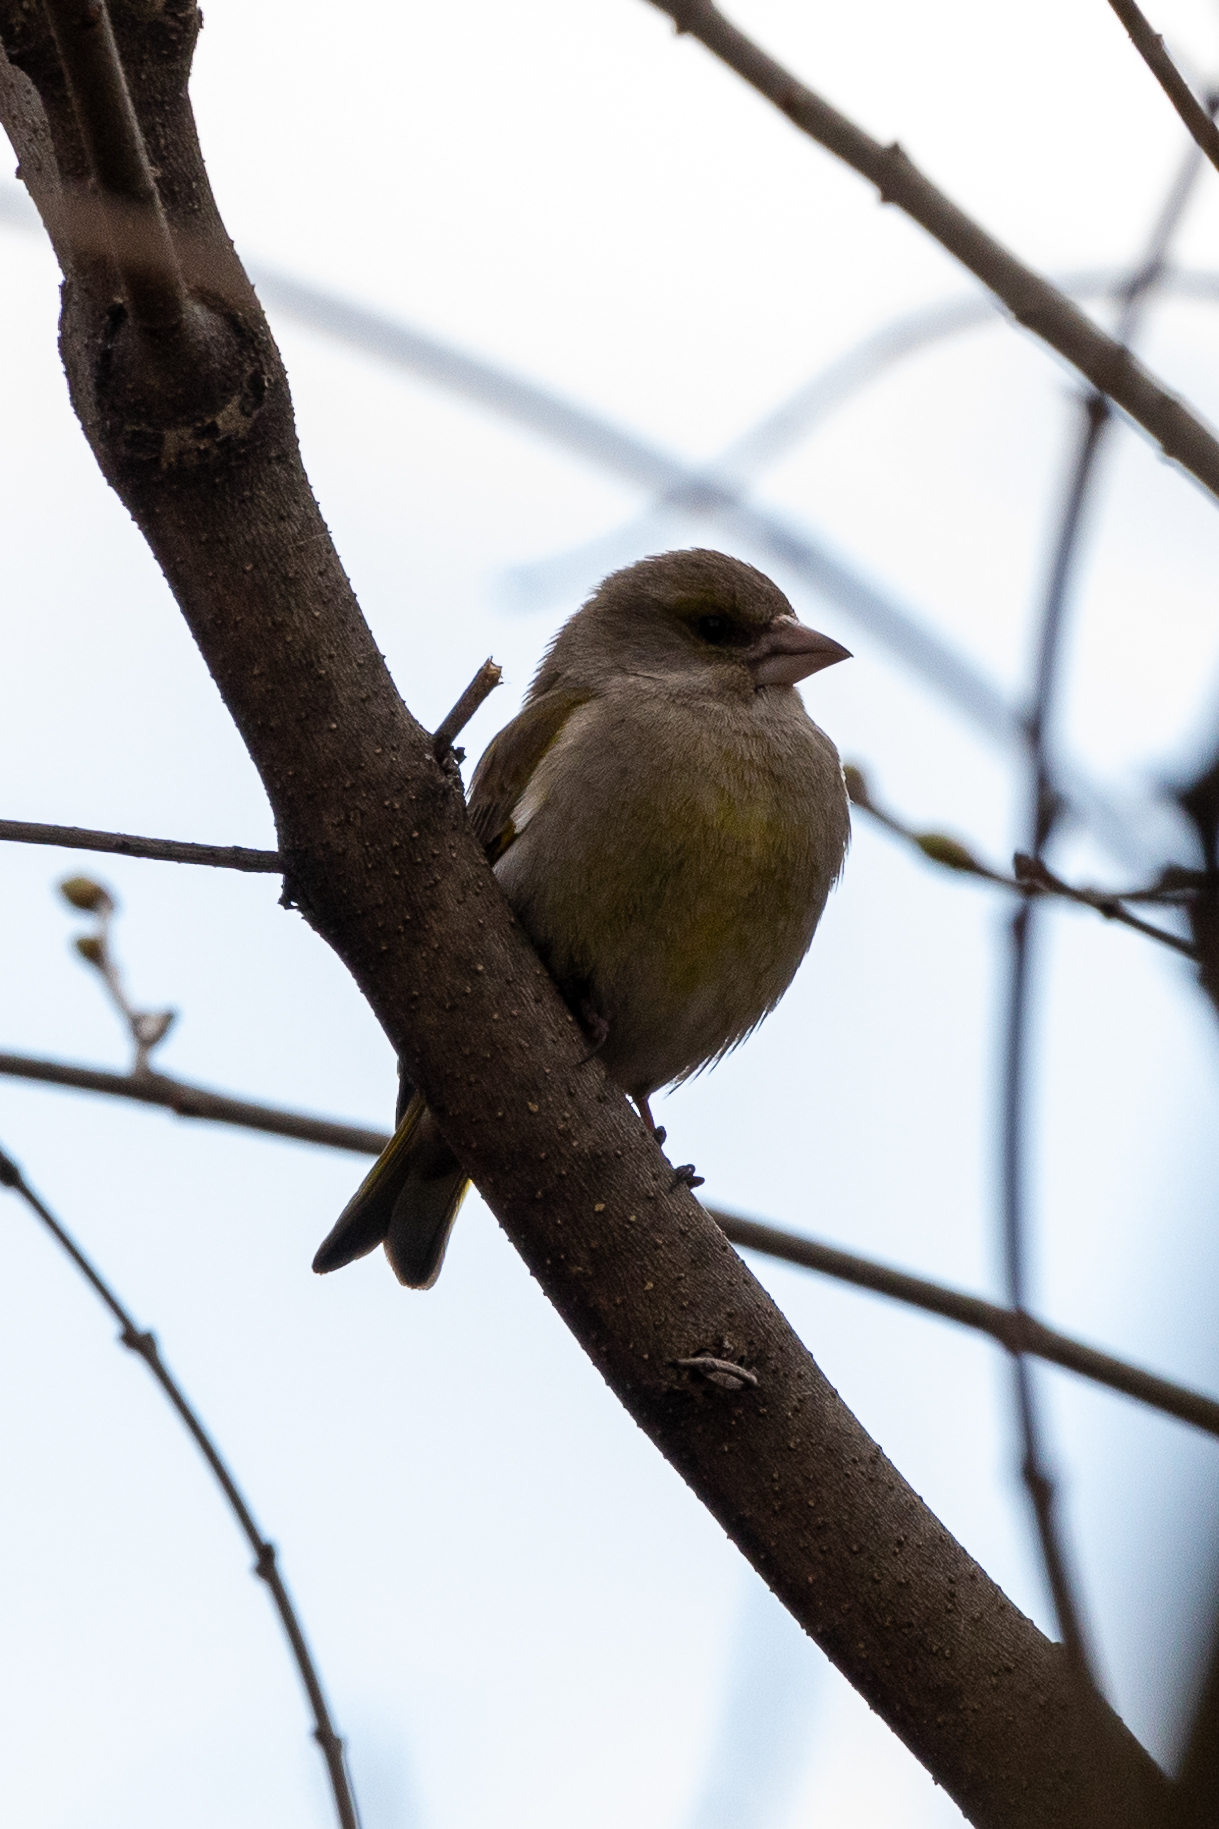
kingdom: Plantae
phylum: Tracheophyta
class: Liliopsida
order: Poales
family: Poaceae
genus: Chloris
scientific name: Chloris chloris
